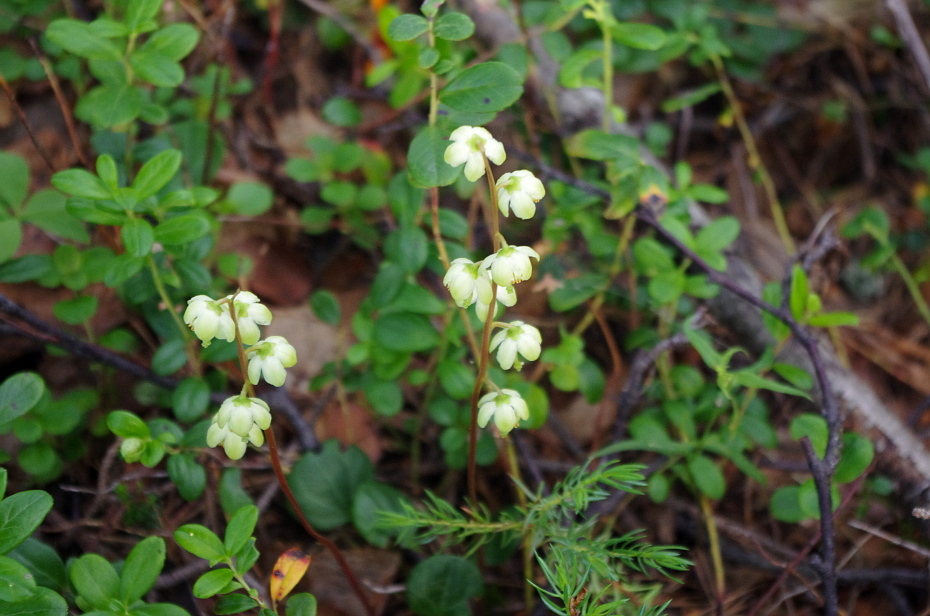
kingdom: Plantae
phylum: Tracheophyta
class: Magnoliopsida
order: Ericales
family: Ericaceae
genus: Pyrola
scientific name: Pyrola chlorantha
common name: Green wintergreen
